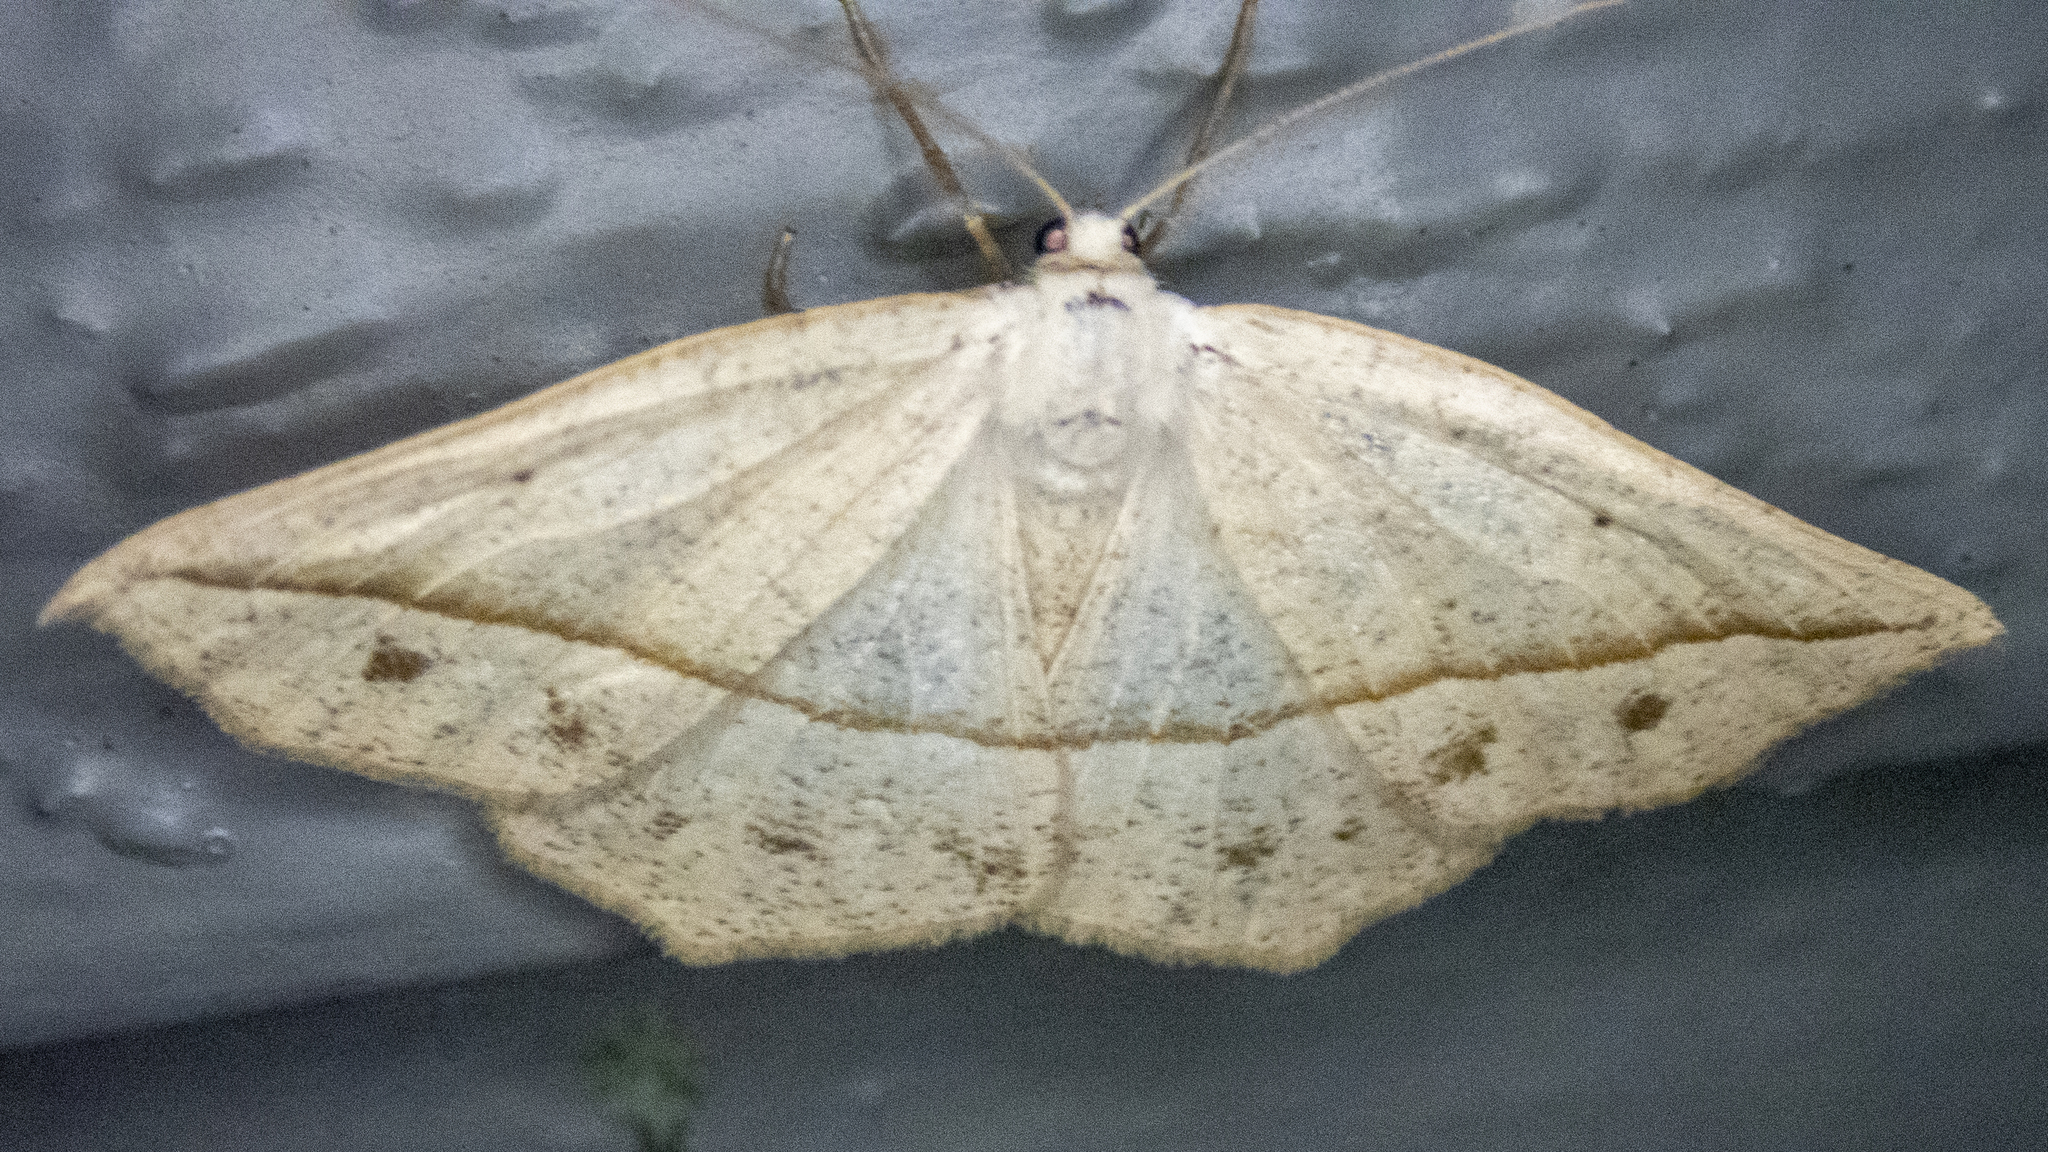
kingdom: Animalia
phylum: Arthropoda
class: Insecta
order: Lepidoptera
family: Geometridae
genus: Eusarca
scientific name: Eusarca confusaria
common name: Confused eusarca
